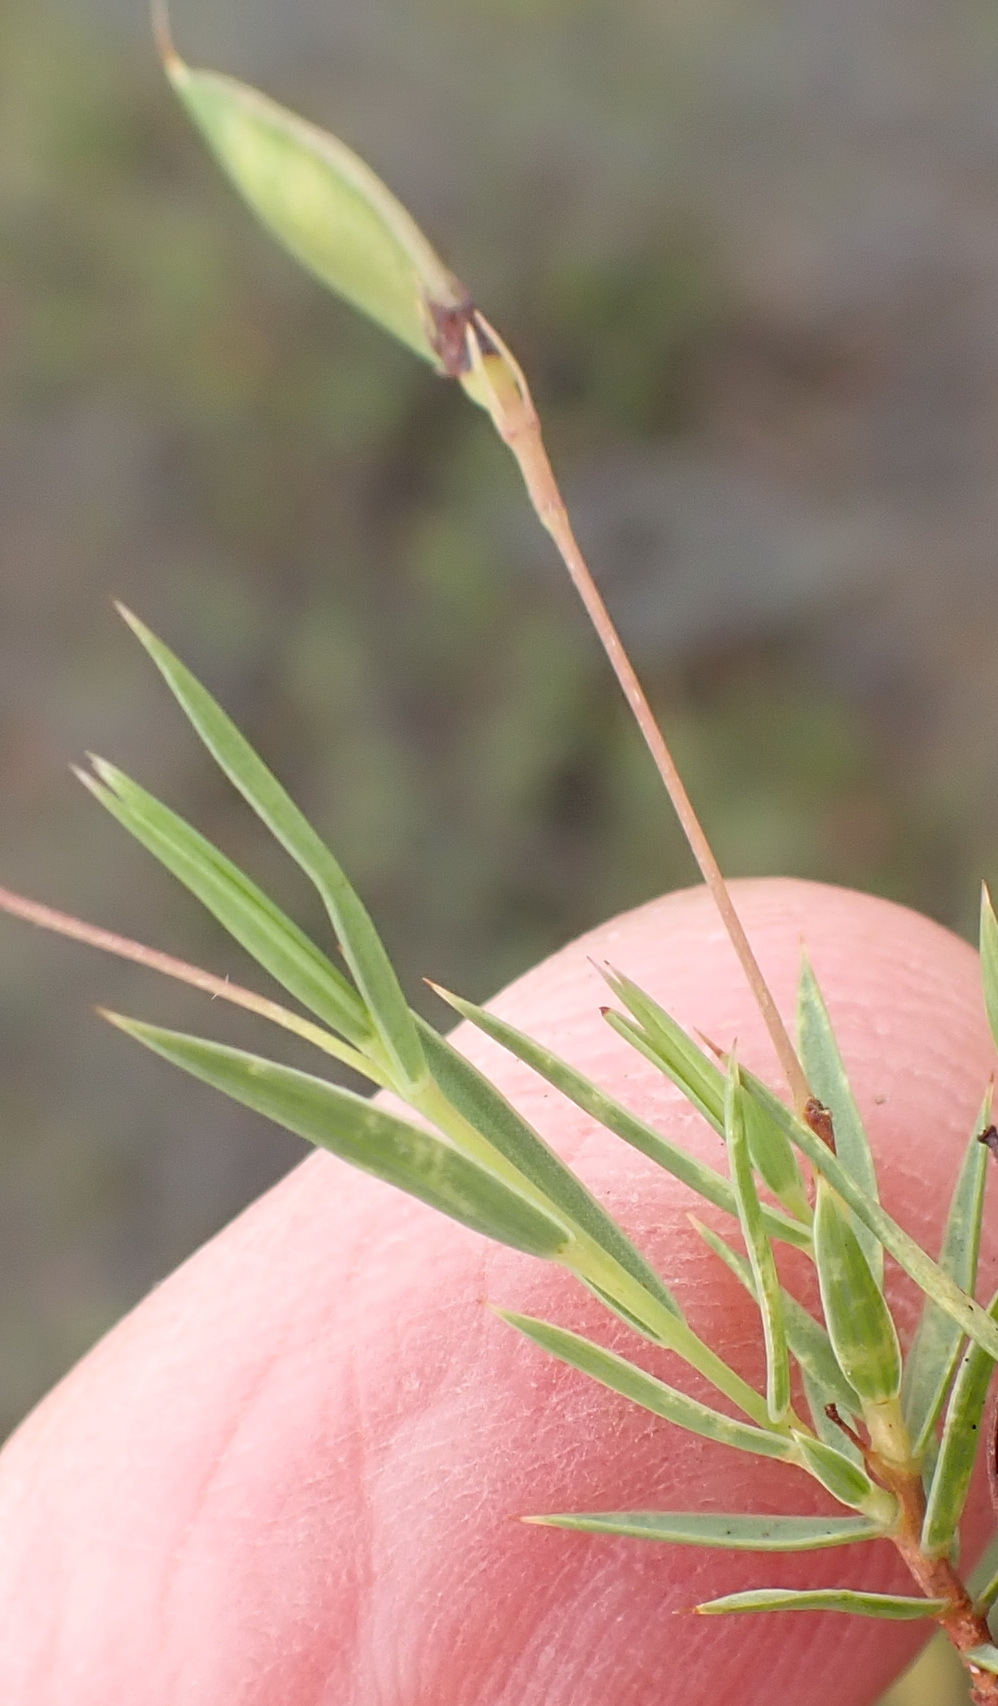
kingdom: Plantae
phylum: Tracheophyta
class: Magnoliopsida
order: Fabales
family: Fabaceae
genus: Aspalathus
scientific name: Aspalathus alpestris
